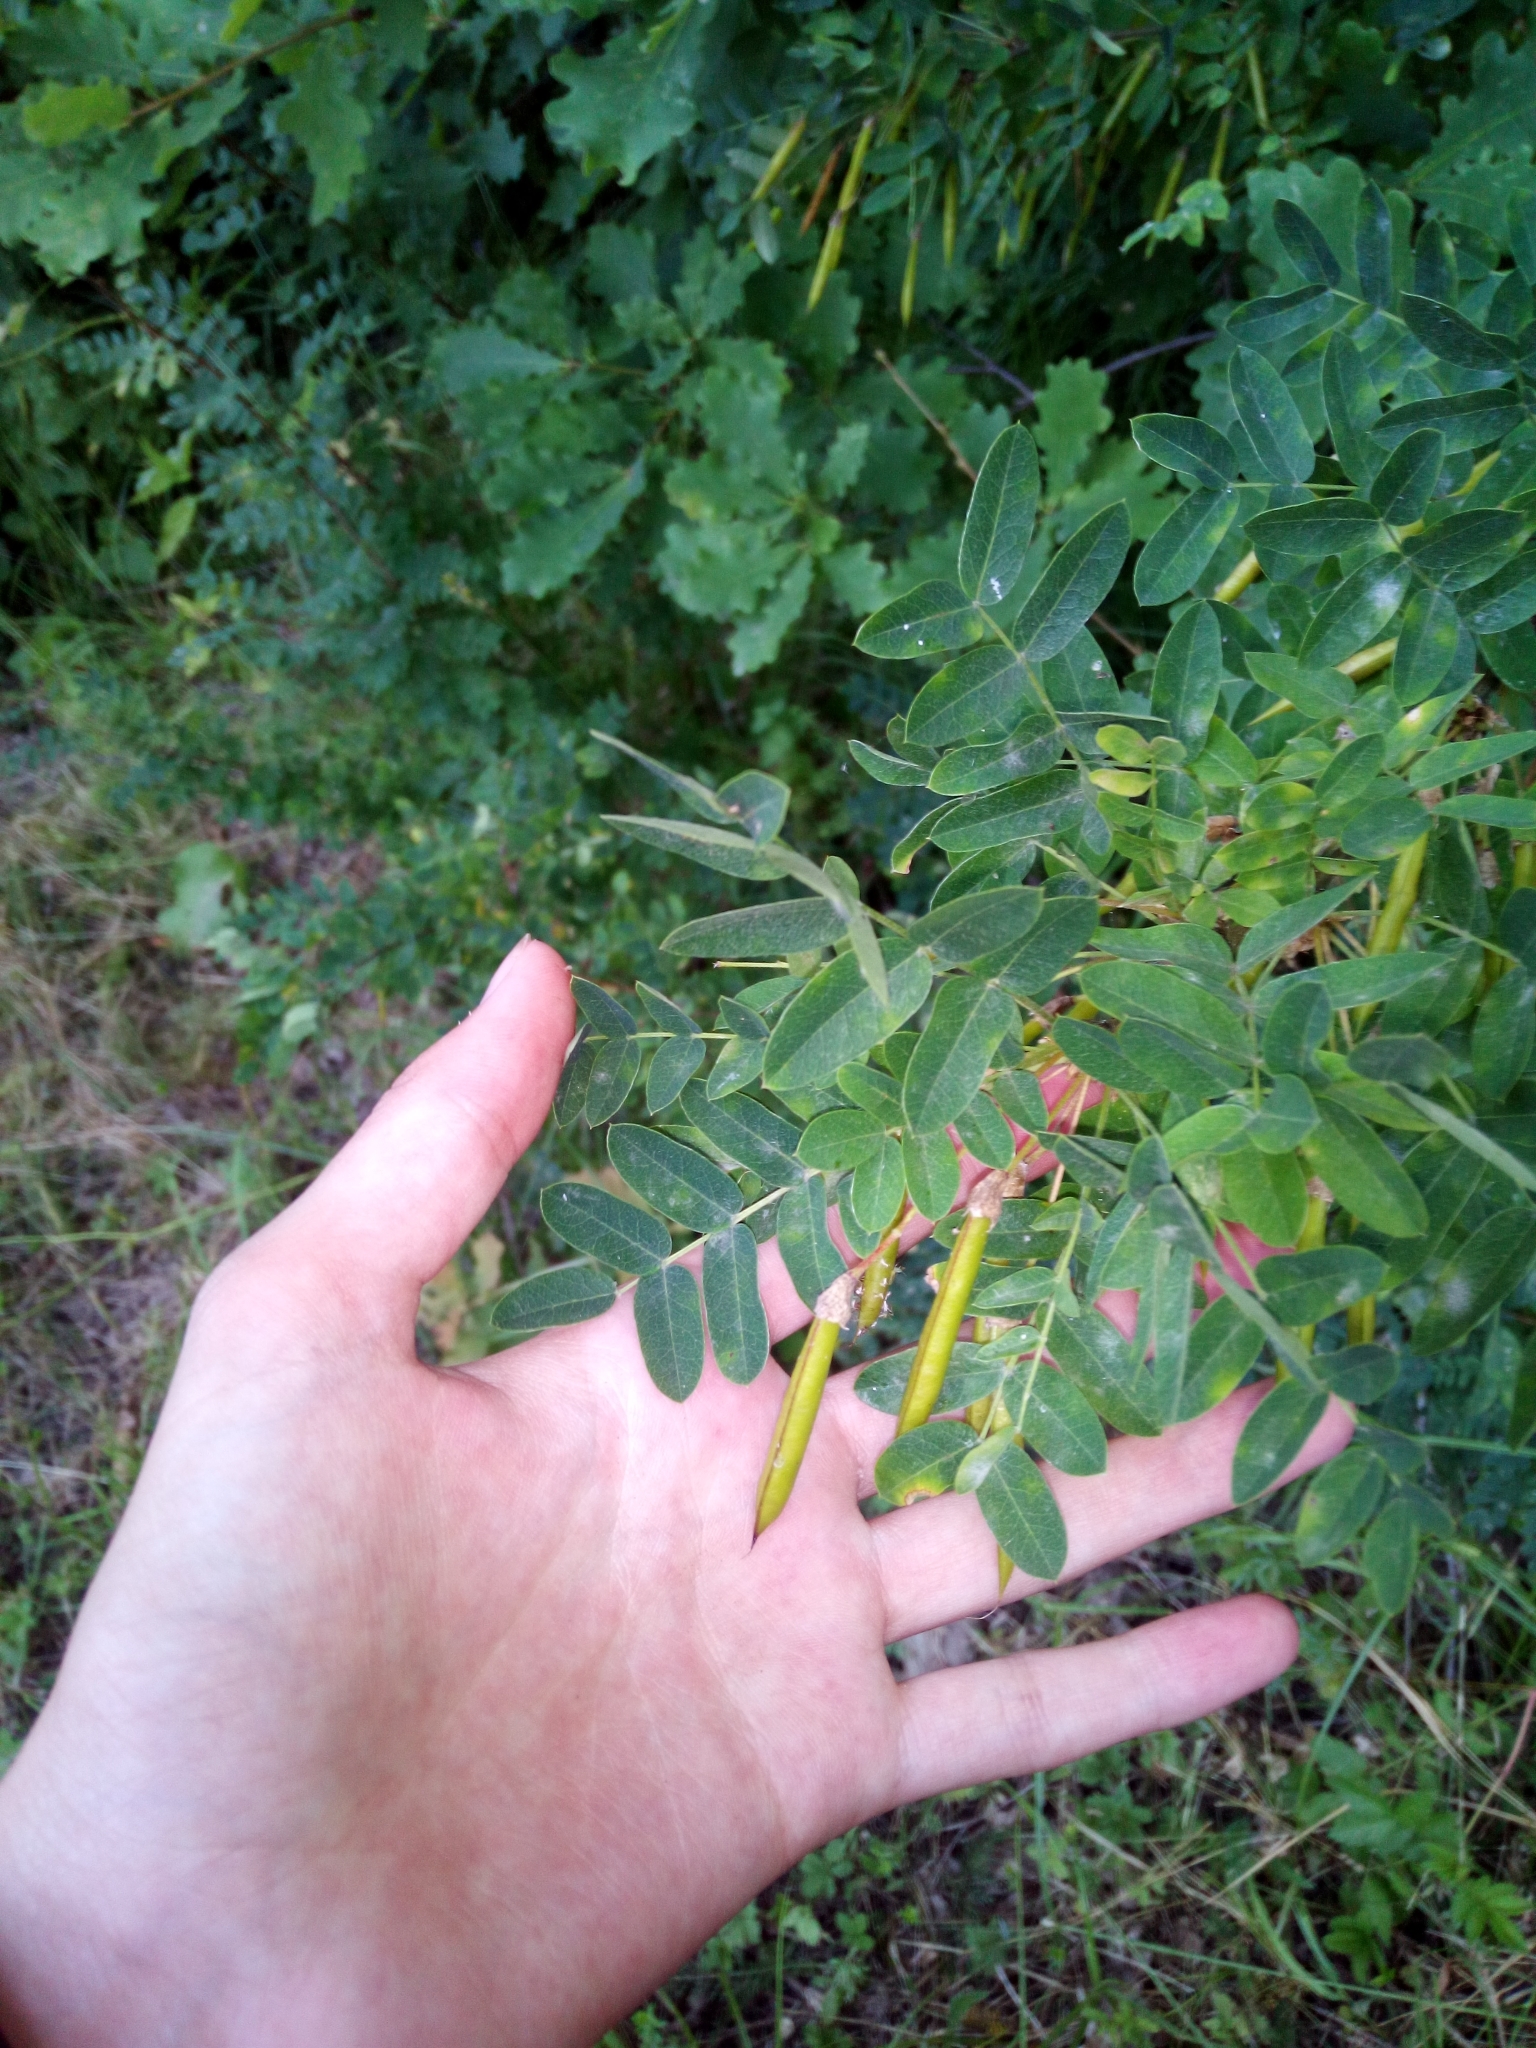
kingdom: Plantae
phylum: Tracheophyta
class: Magnoliopsida
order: Fabales
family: Fabaceae
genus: Caragana
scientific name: Caragana arborescens
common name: Siberian peashrub
